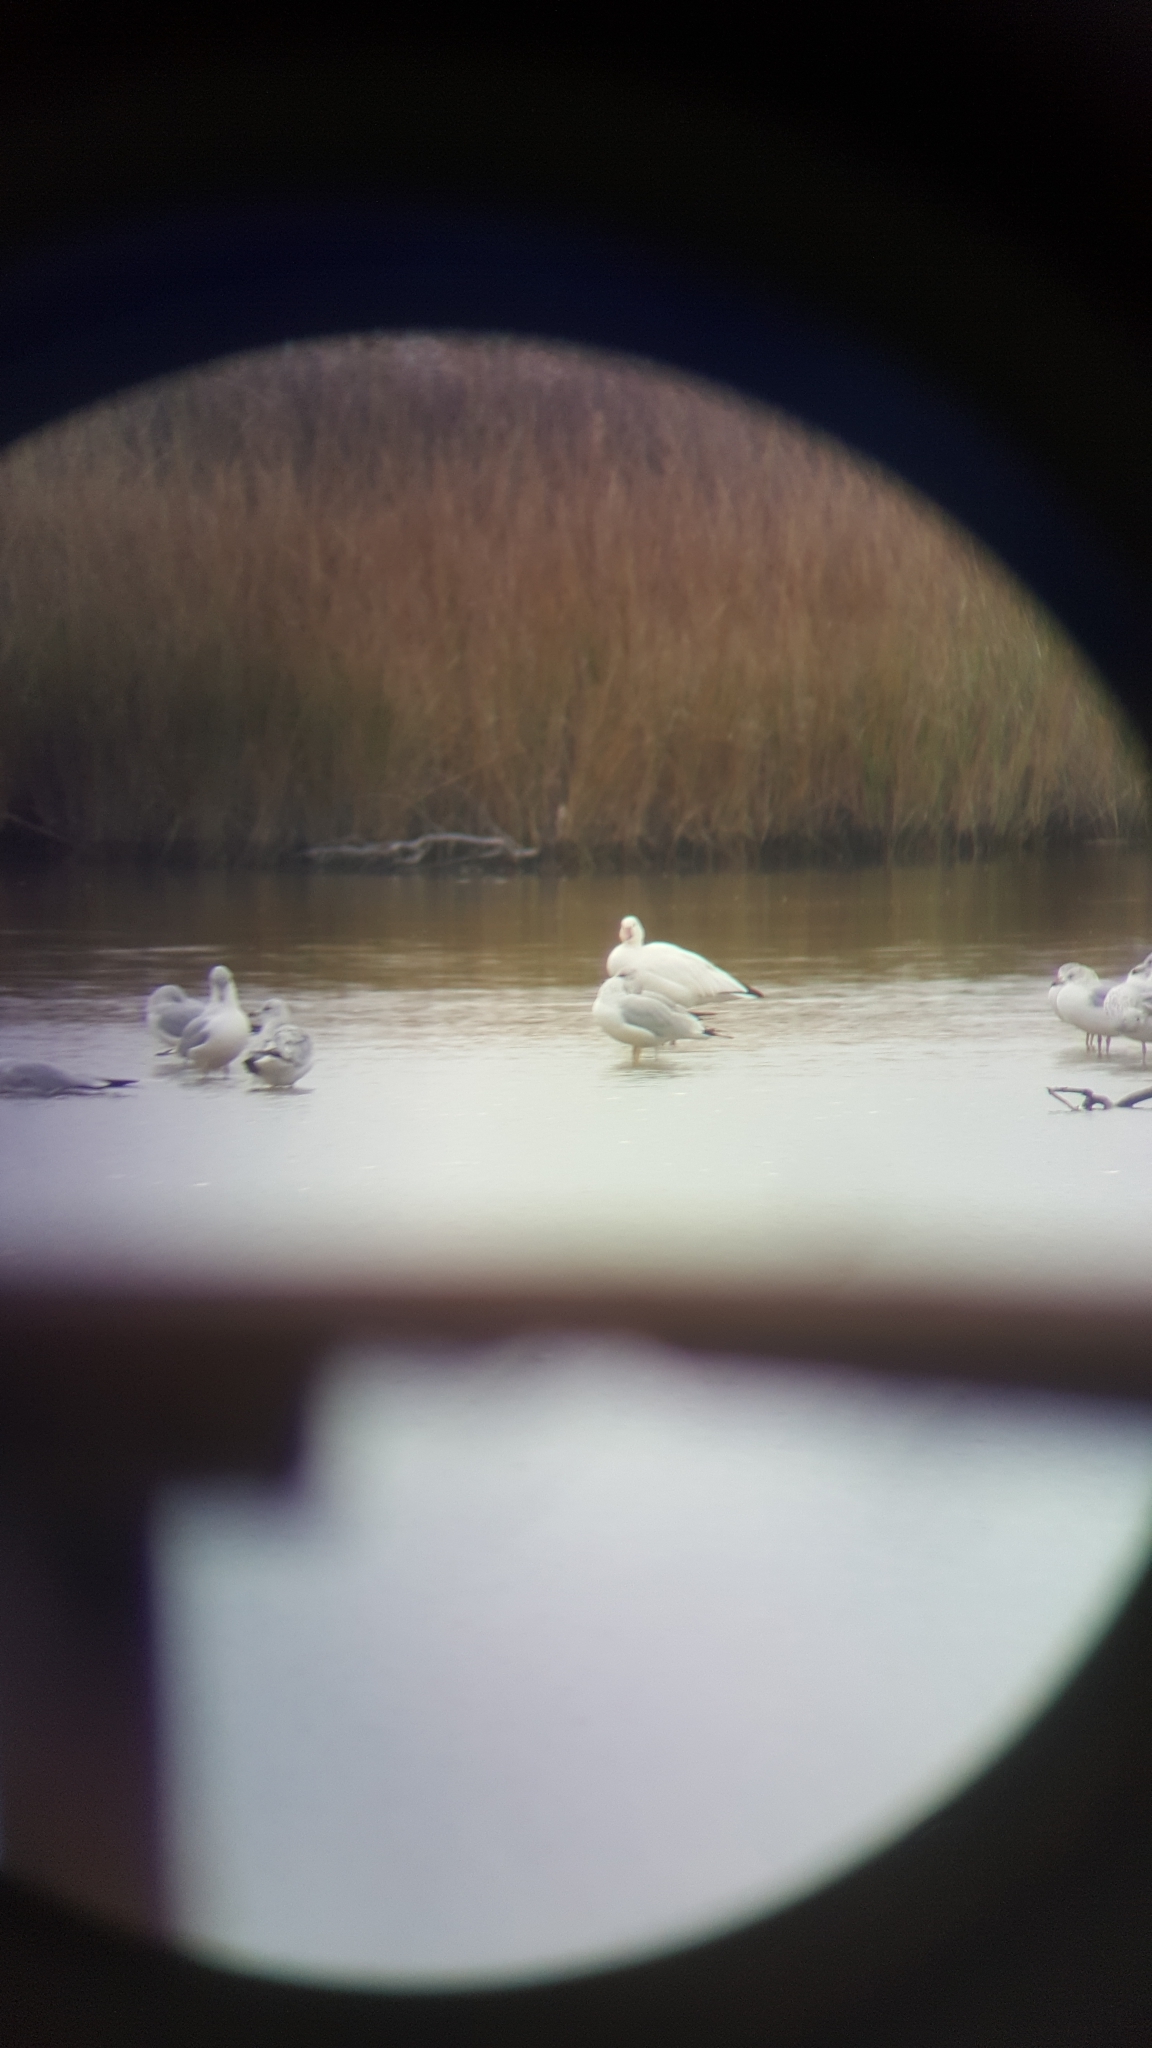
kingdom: Animalia
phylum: Chordata
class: Aves
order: Anseriformes
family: Anatidae
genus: Anser
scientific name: Anser caerulescens
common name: Snow goose
